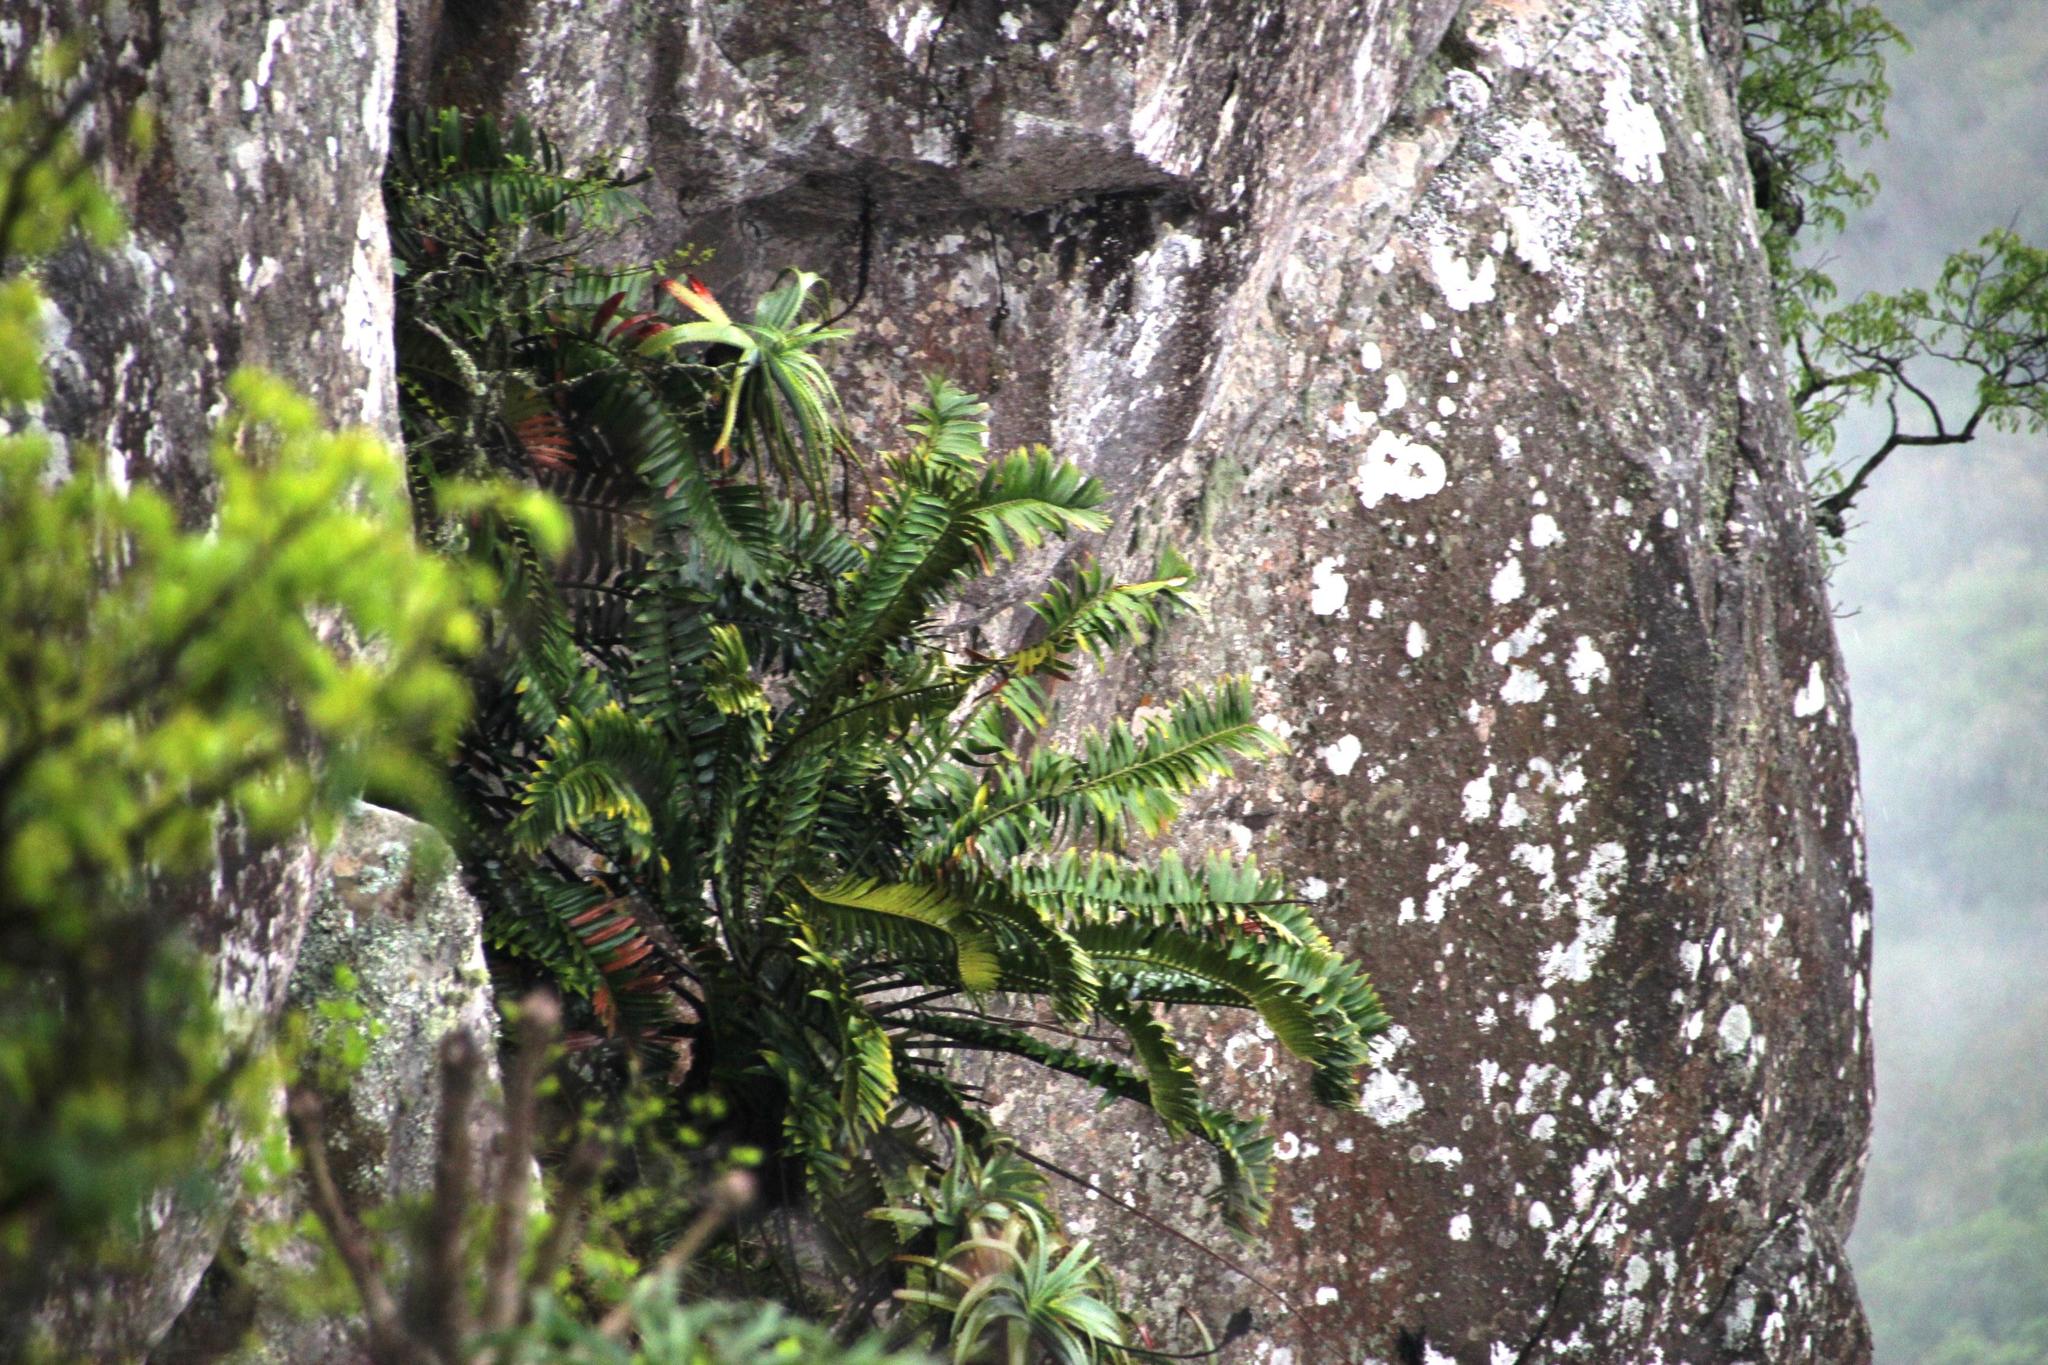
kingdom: Plantae
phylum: Tracheophyta
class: Cycadopsida
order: Cycadales
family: Zamiaceae
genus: Encephalartos
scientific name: Encephalartos natalensis
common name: Natal cycad
